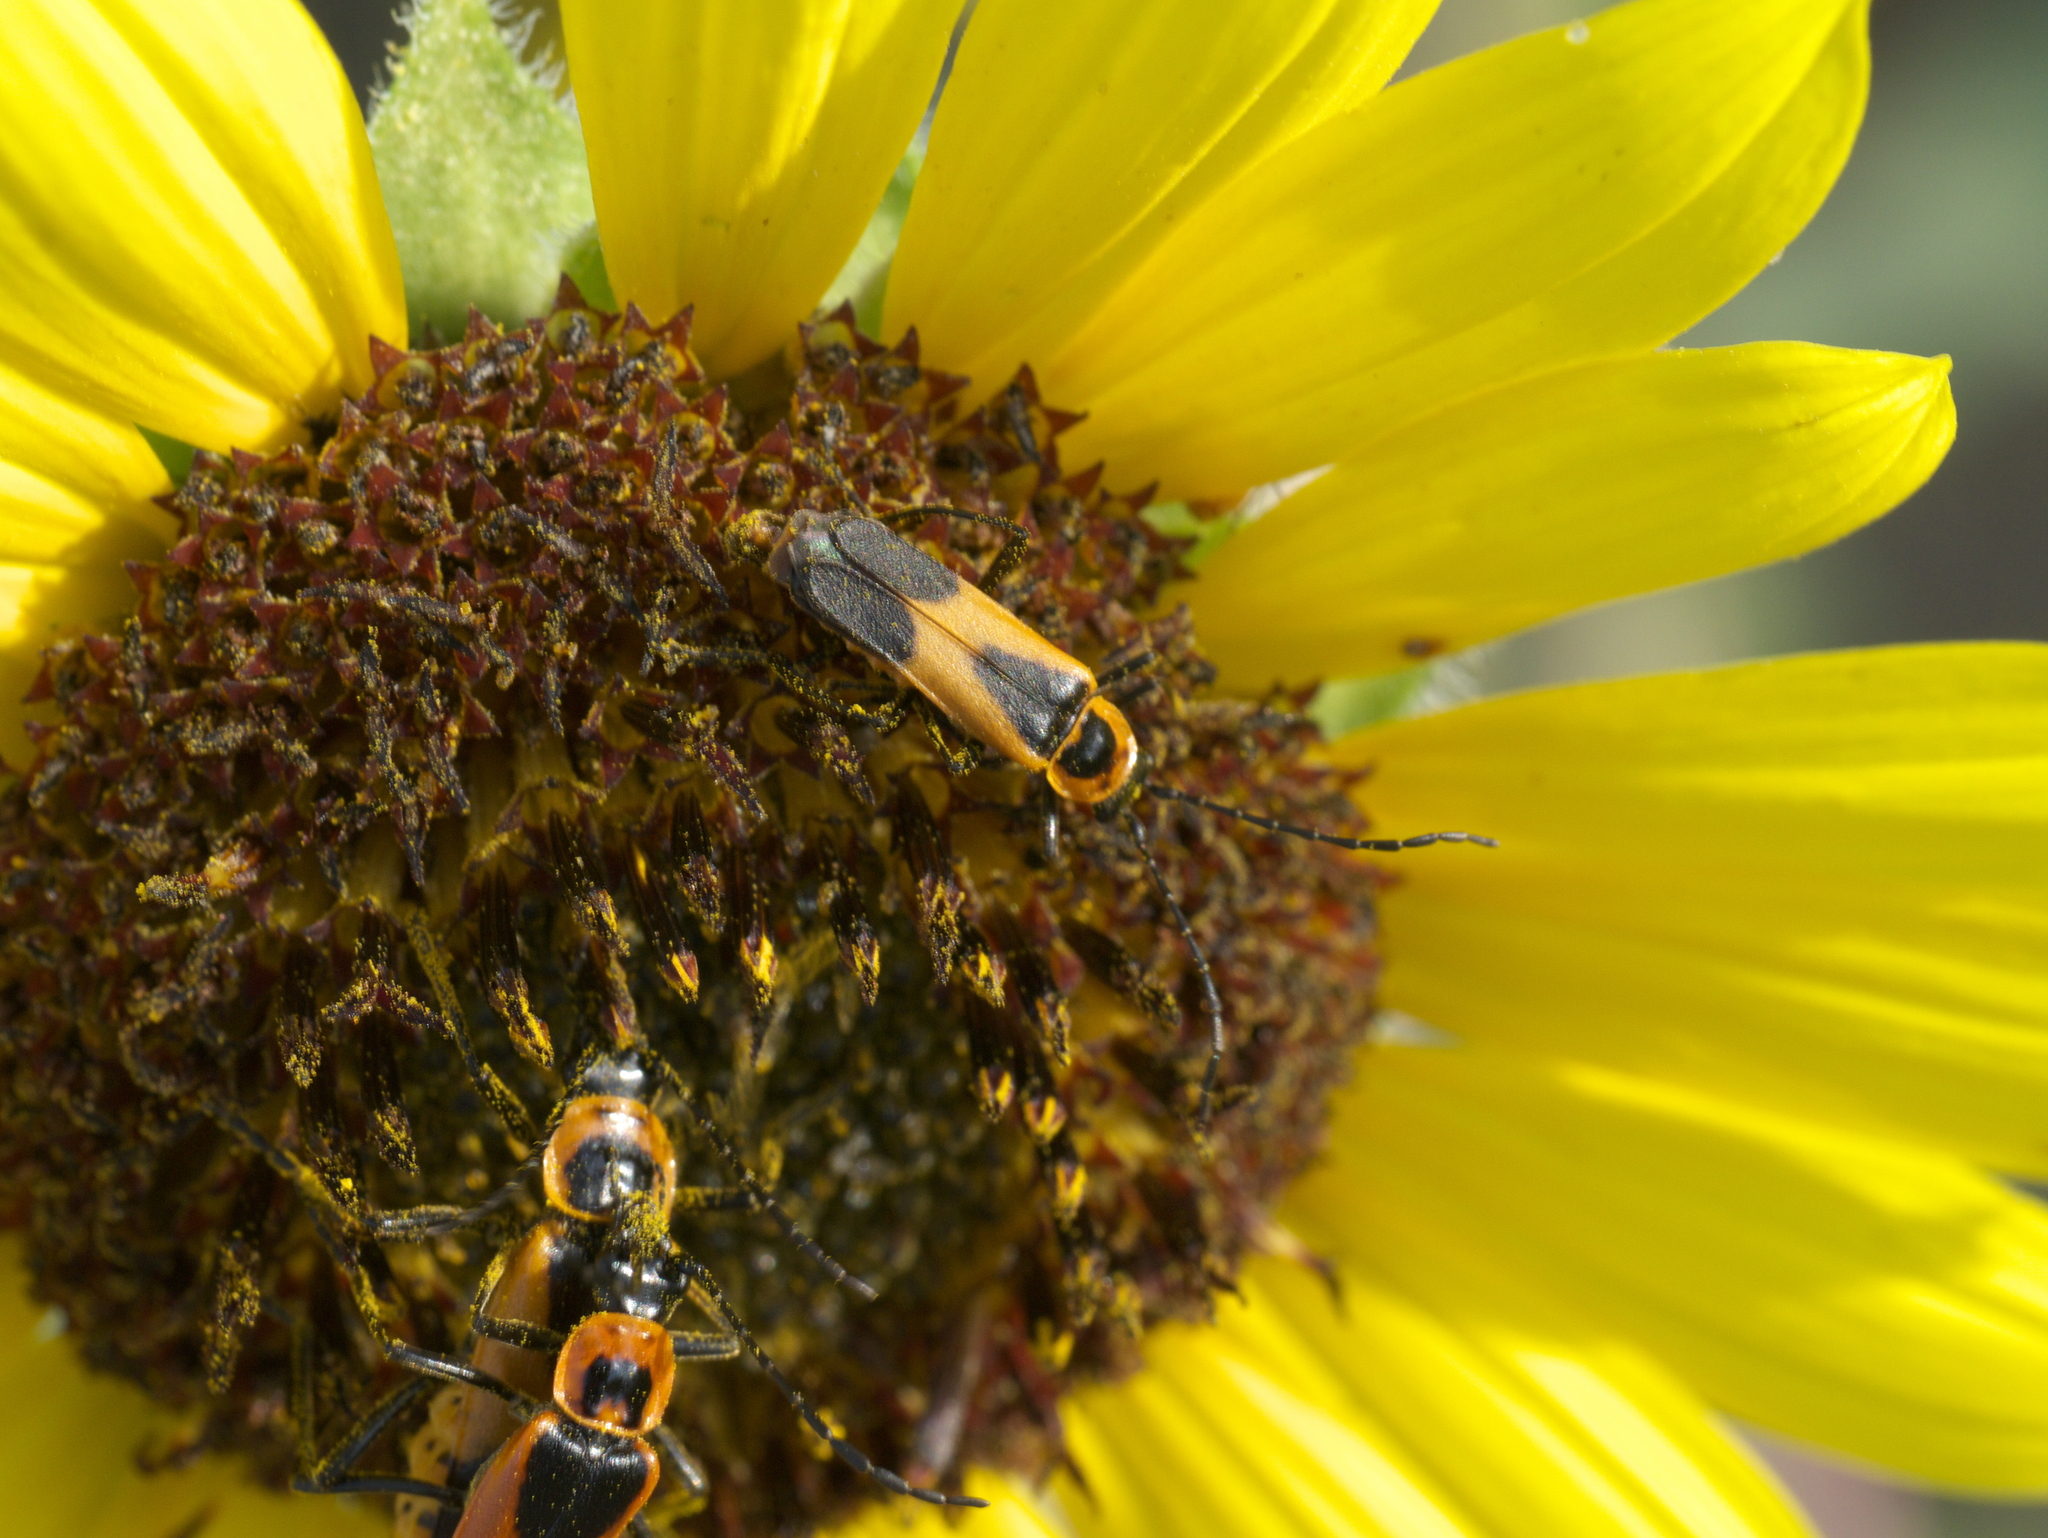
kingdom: Animalia
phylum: Arthropoda
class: Insecta
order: Coleoptera
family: Cantharidae
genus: Chauliognathus
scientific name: Chauliognathus basalis
